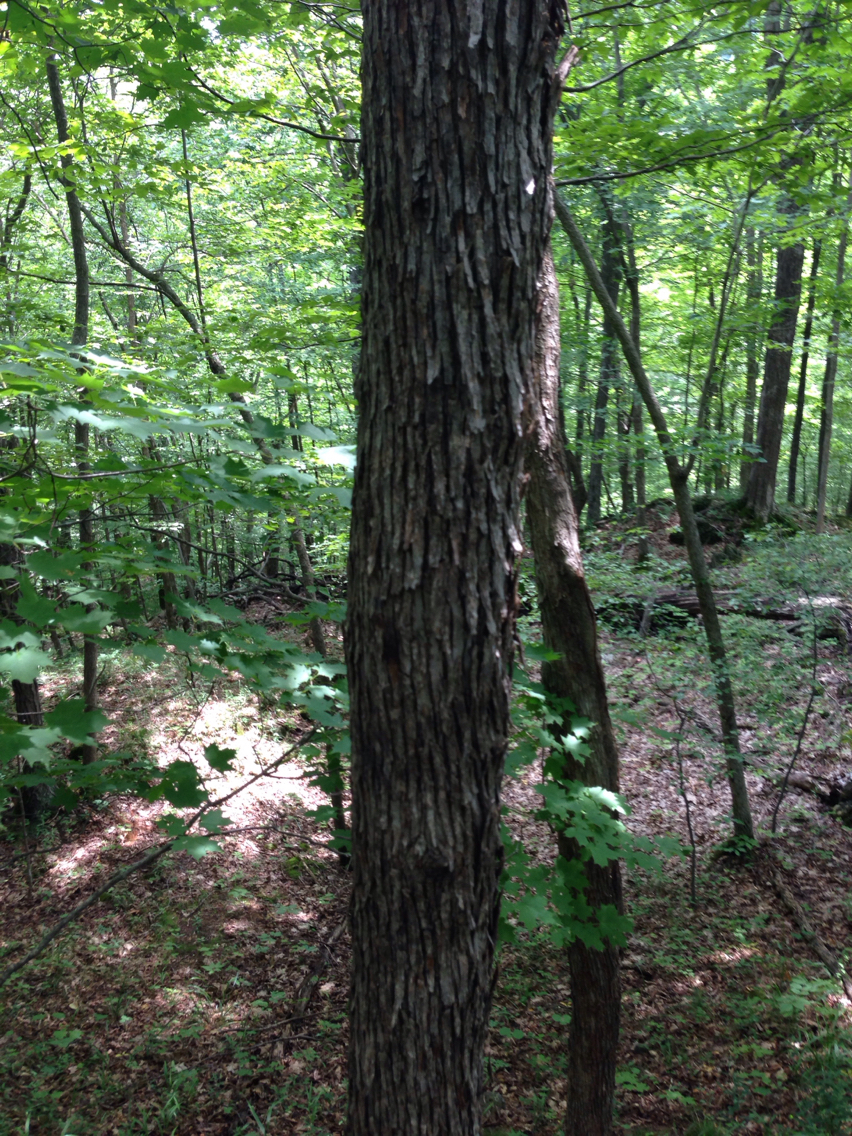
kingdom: Plantae
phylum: Tracheophyta
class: Magnoliopsida
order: Fagales
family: Betulaceae
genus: Ostrya
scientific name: Ostrya virginiana
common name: Ironwood
